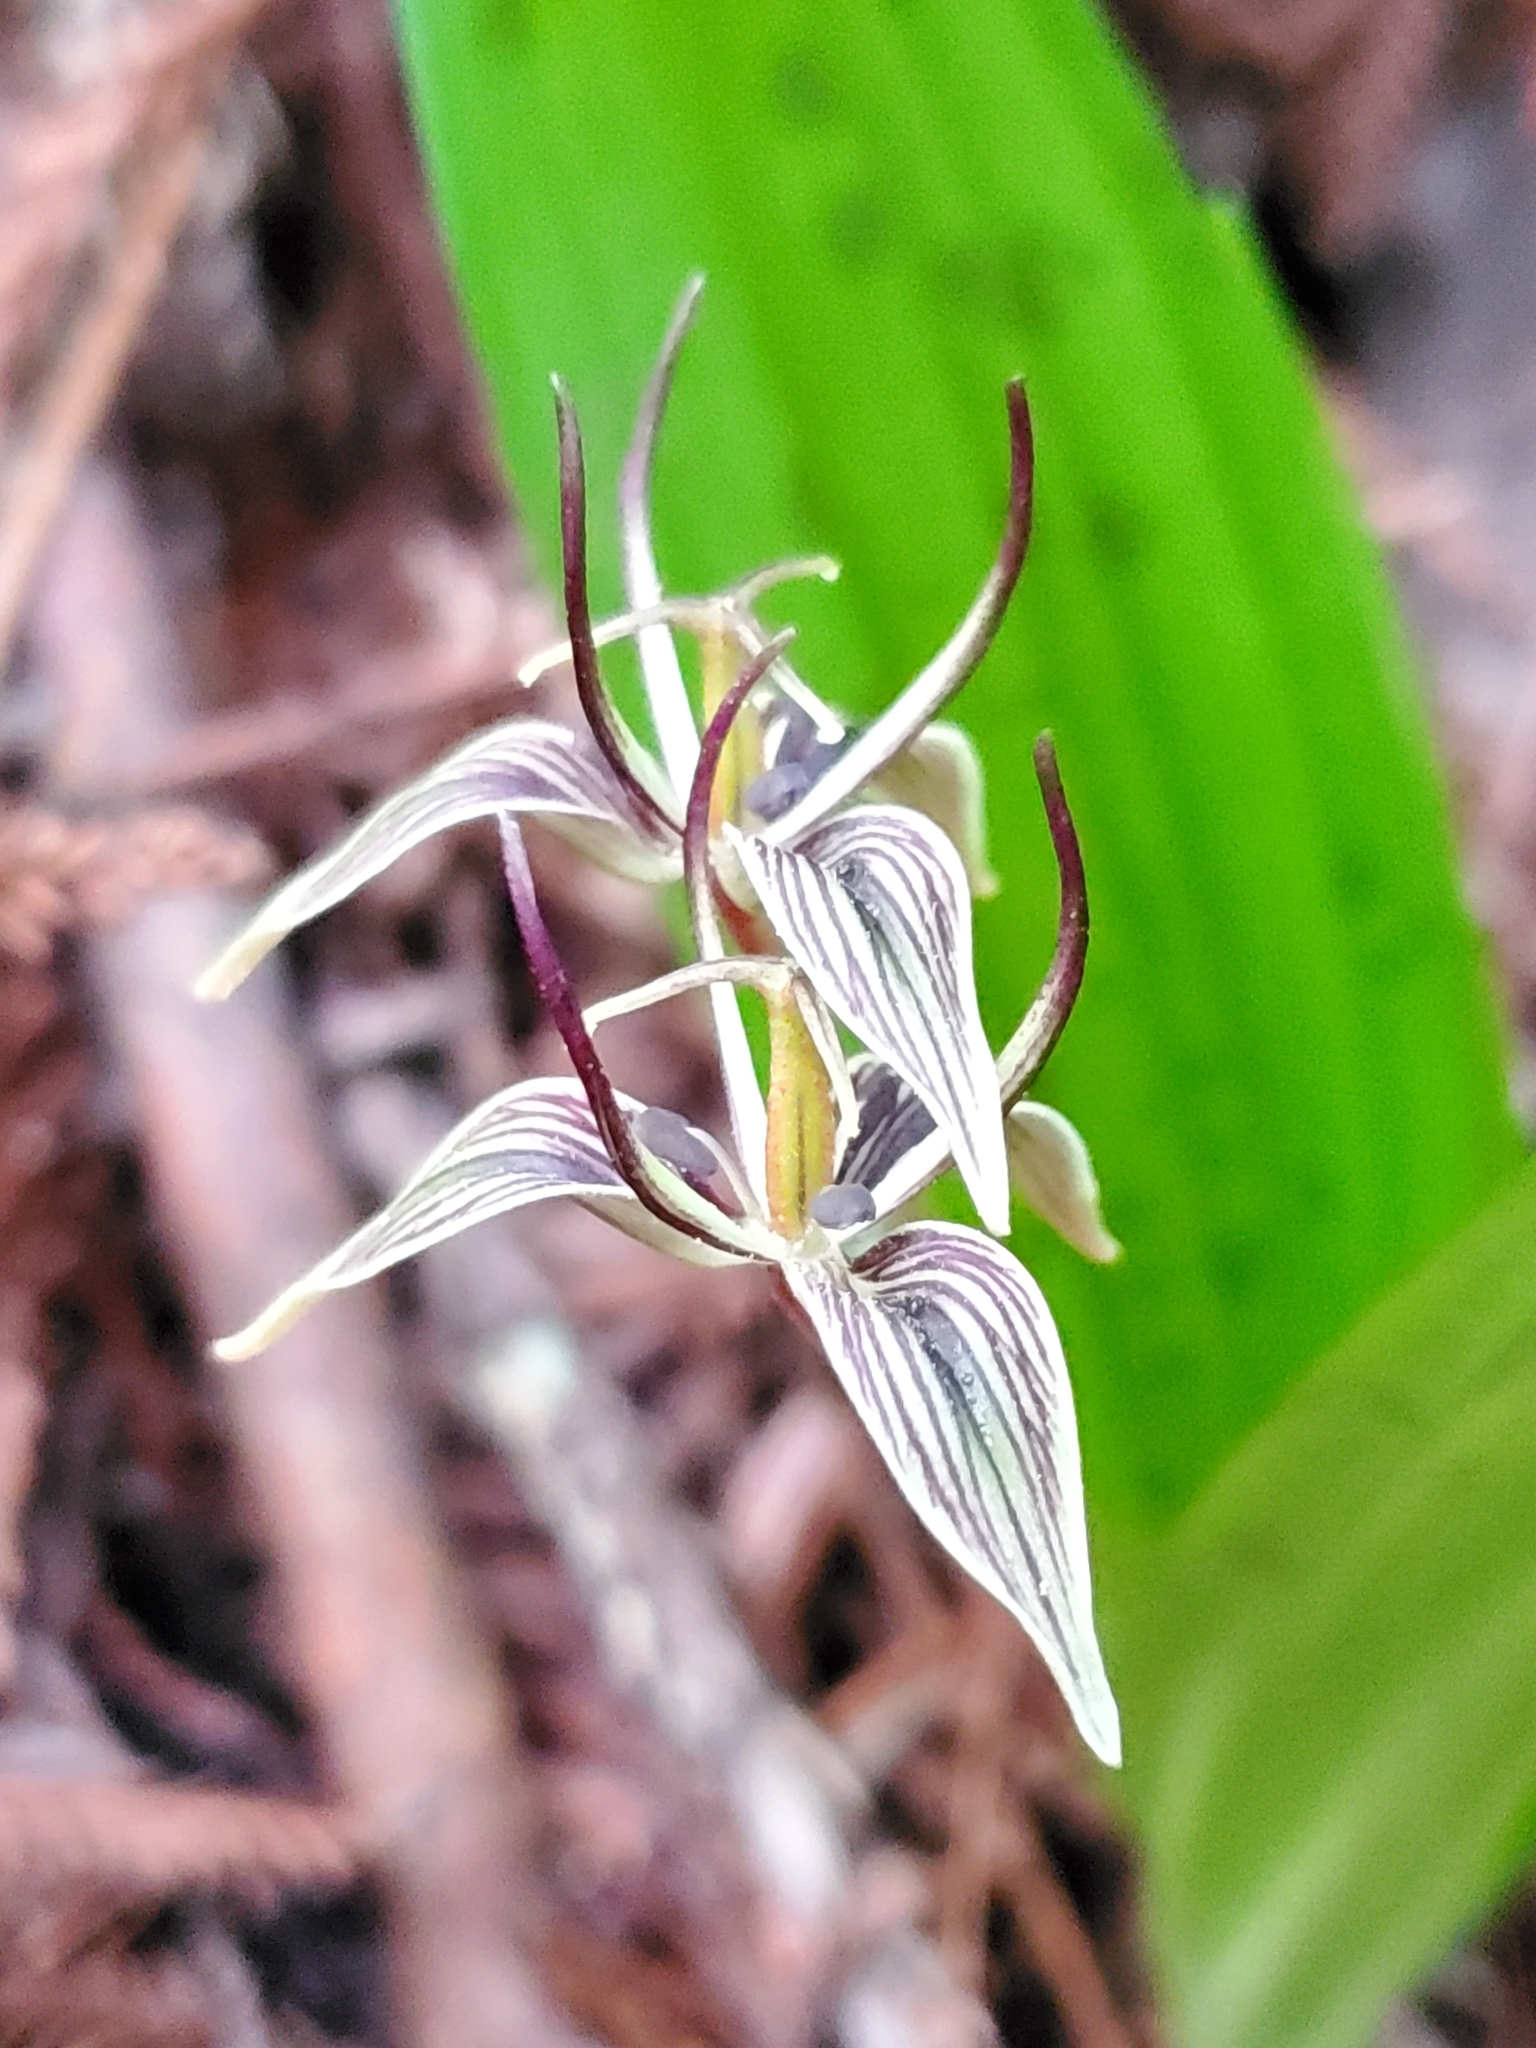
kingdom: Plantae
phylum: Tracheophyta
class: Liliopsida
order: Liliales
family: Liliaceae
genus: Scoliopus
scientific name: Scoliopus bigelovii
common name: Foetid adder's-tongue
